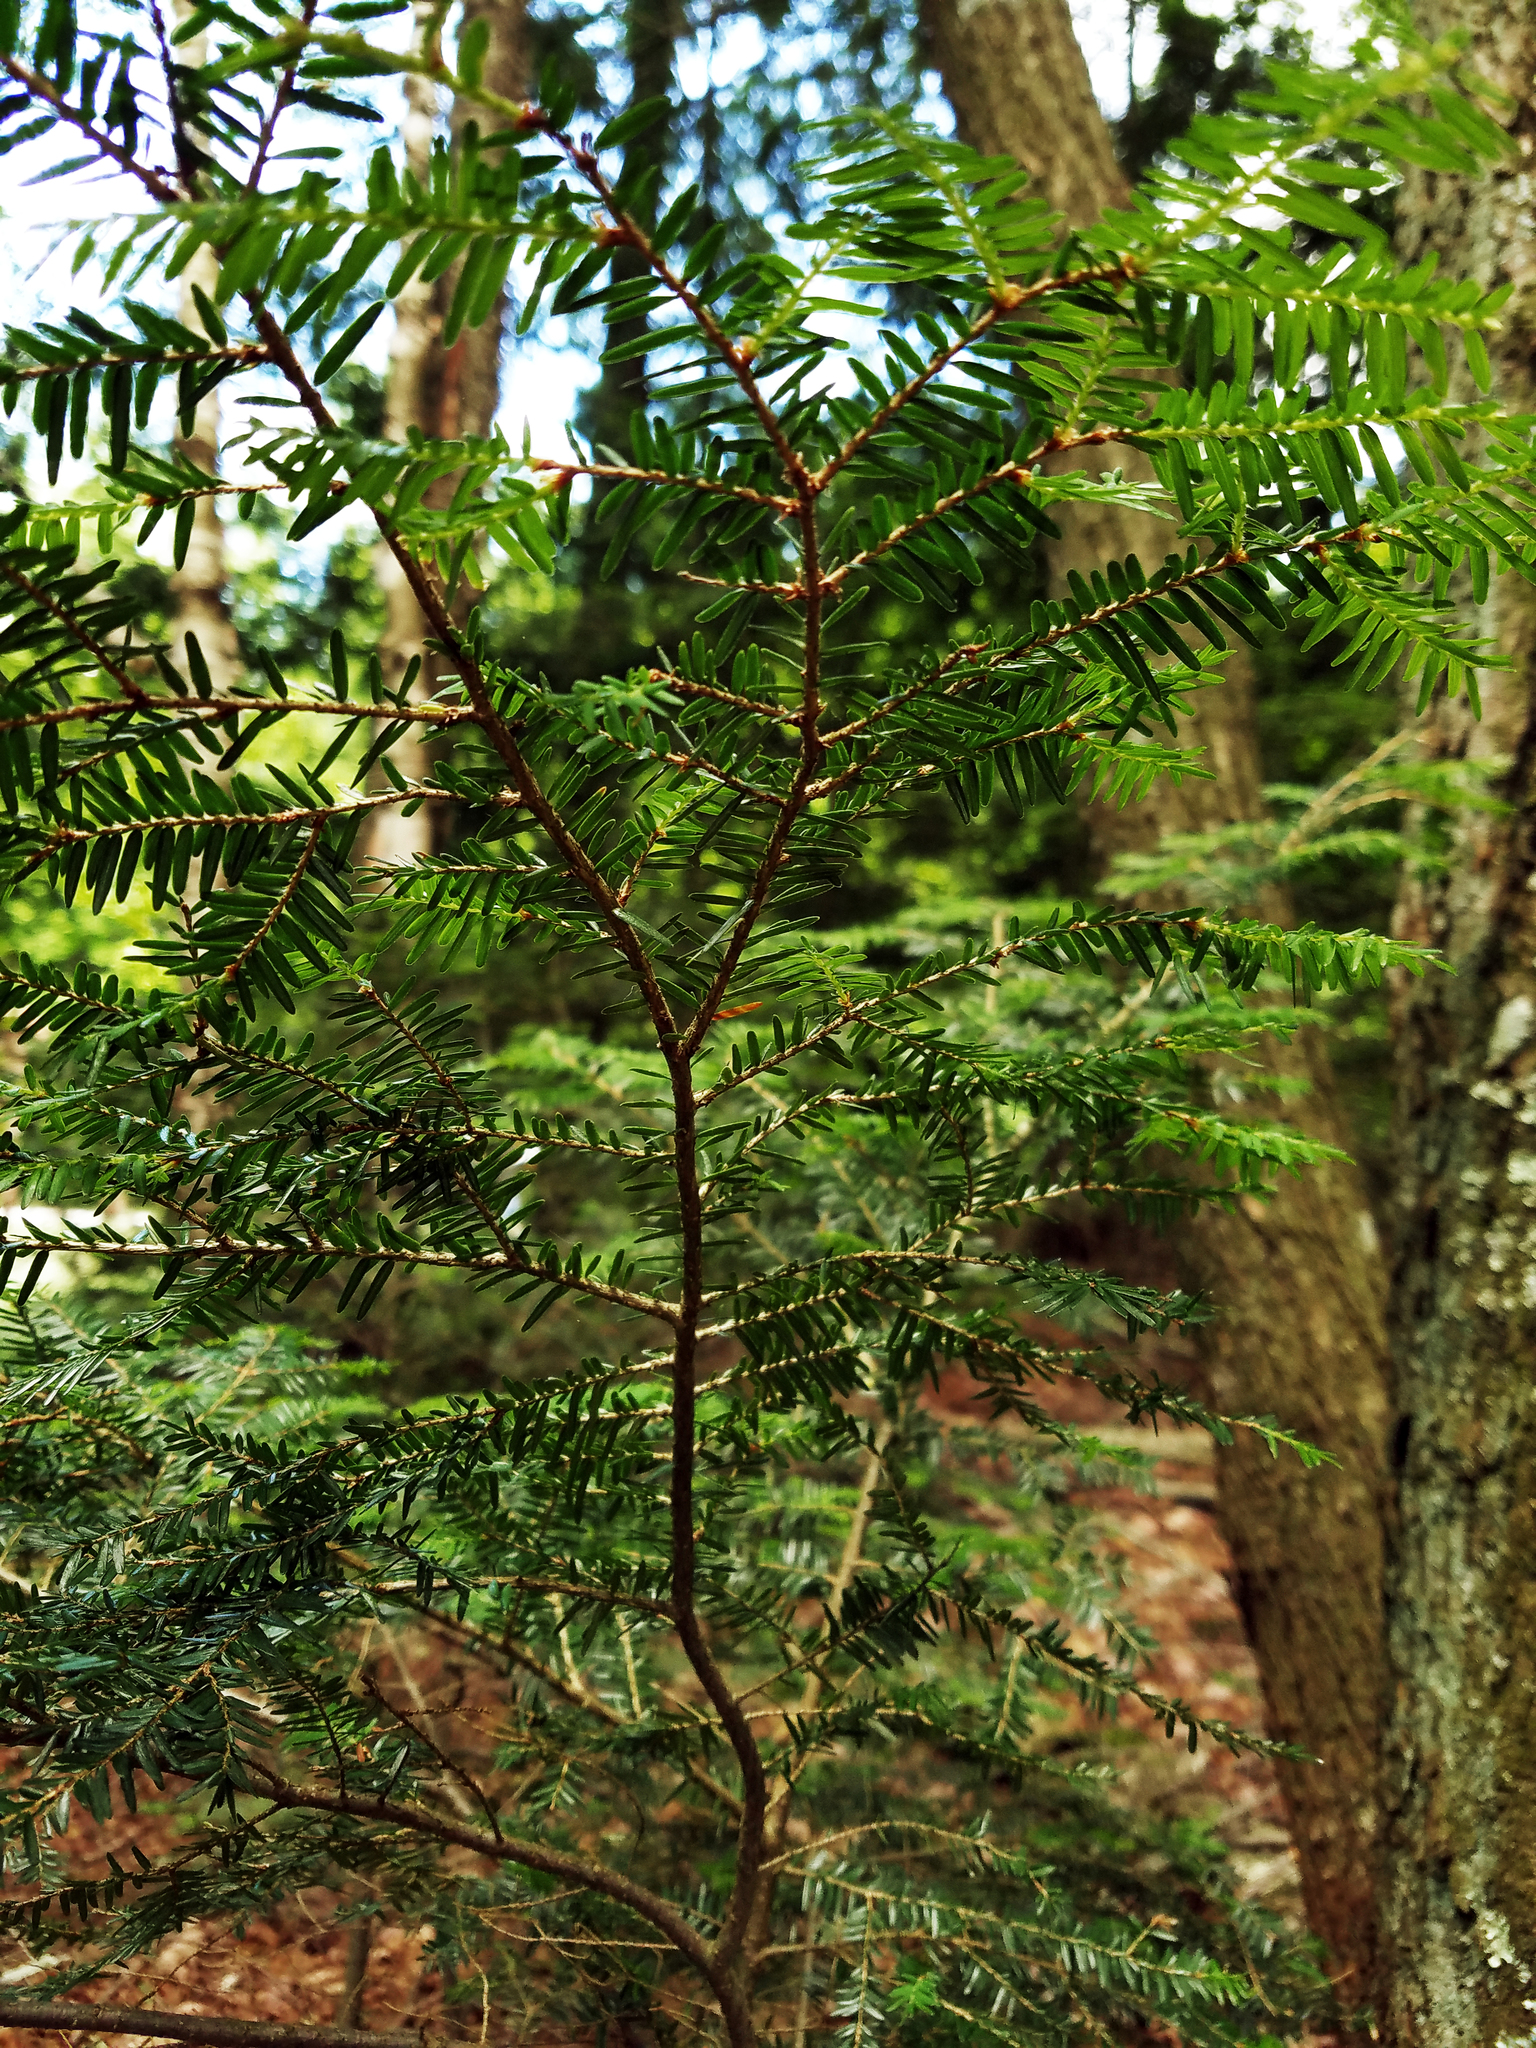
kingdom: Plantae
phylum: Tracheophyta
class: Pinopsida
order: Pinales
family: Pinaceae
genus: Tsuga
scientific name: Tsuga canadensis
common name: Eastern hemlock
